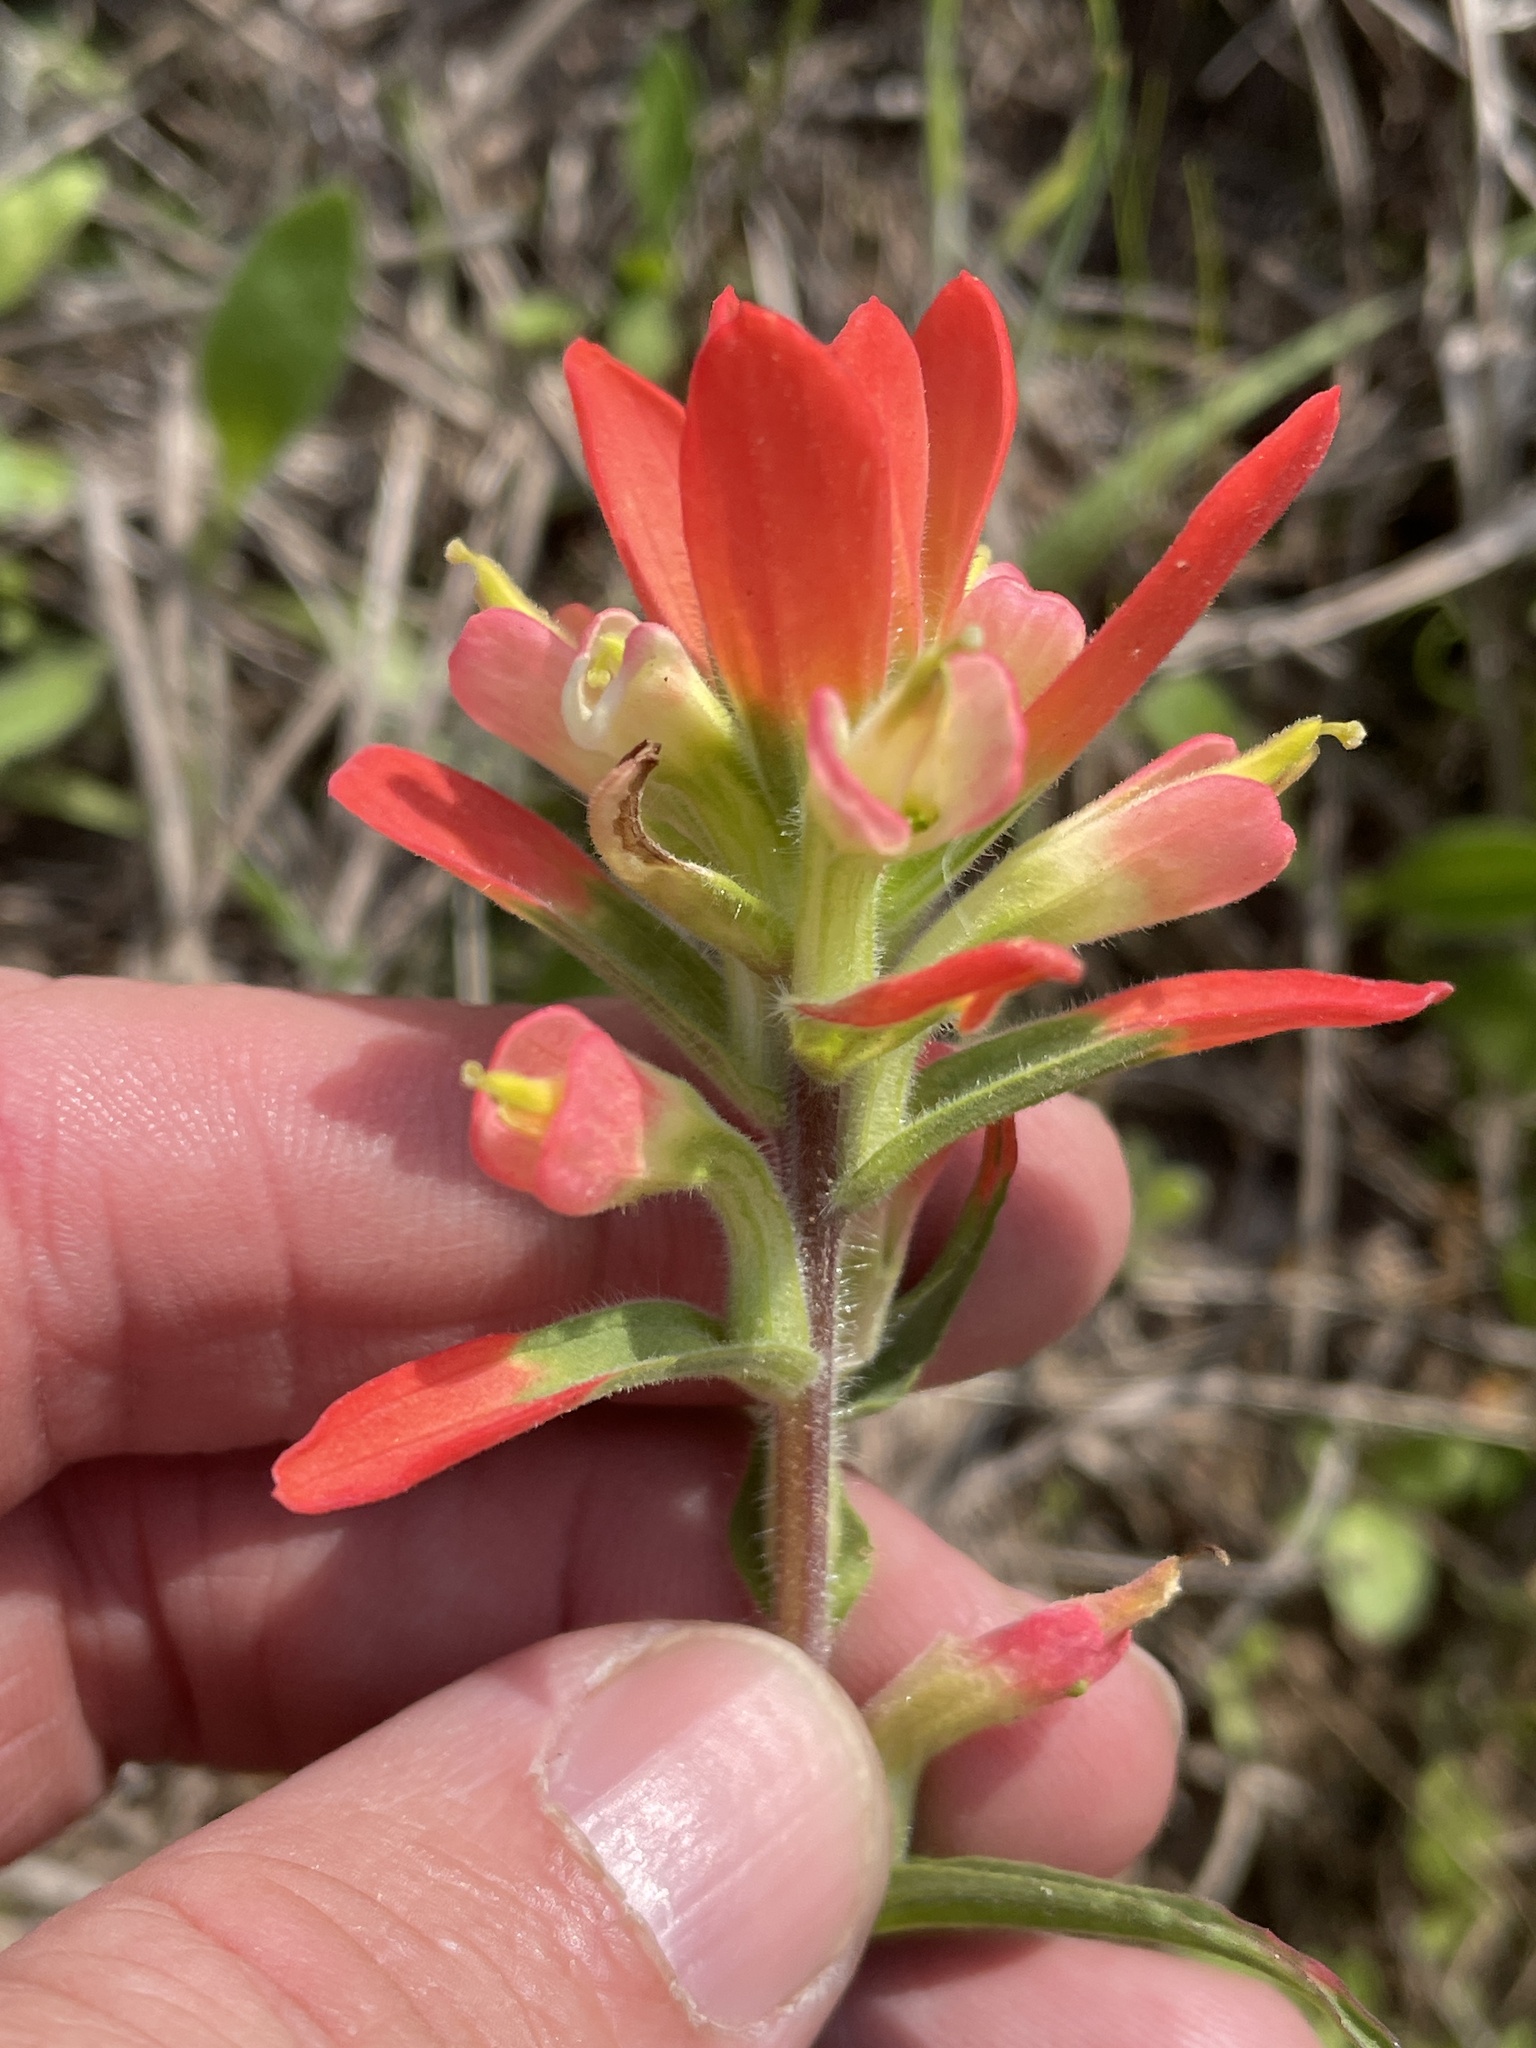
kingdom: Plantae
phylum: Tracheophyta
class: Magnoliopsida
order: Lamiales
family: Orobanchaceae
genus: Castilleja
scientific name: Castilleja indivisa
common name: Texas paintbrush
